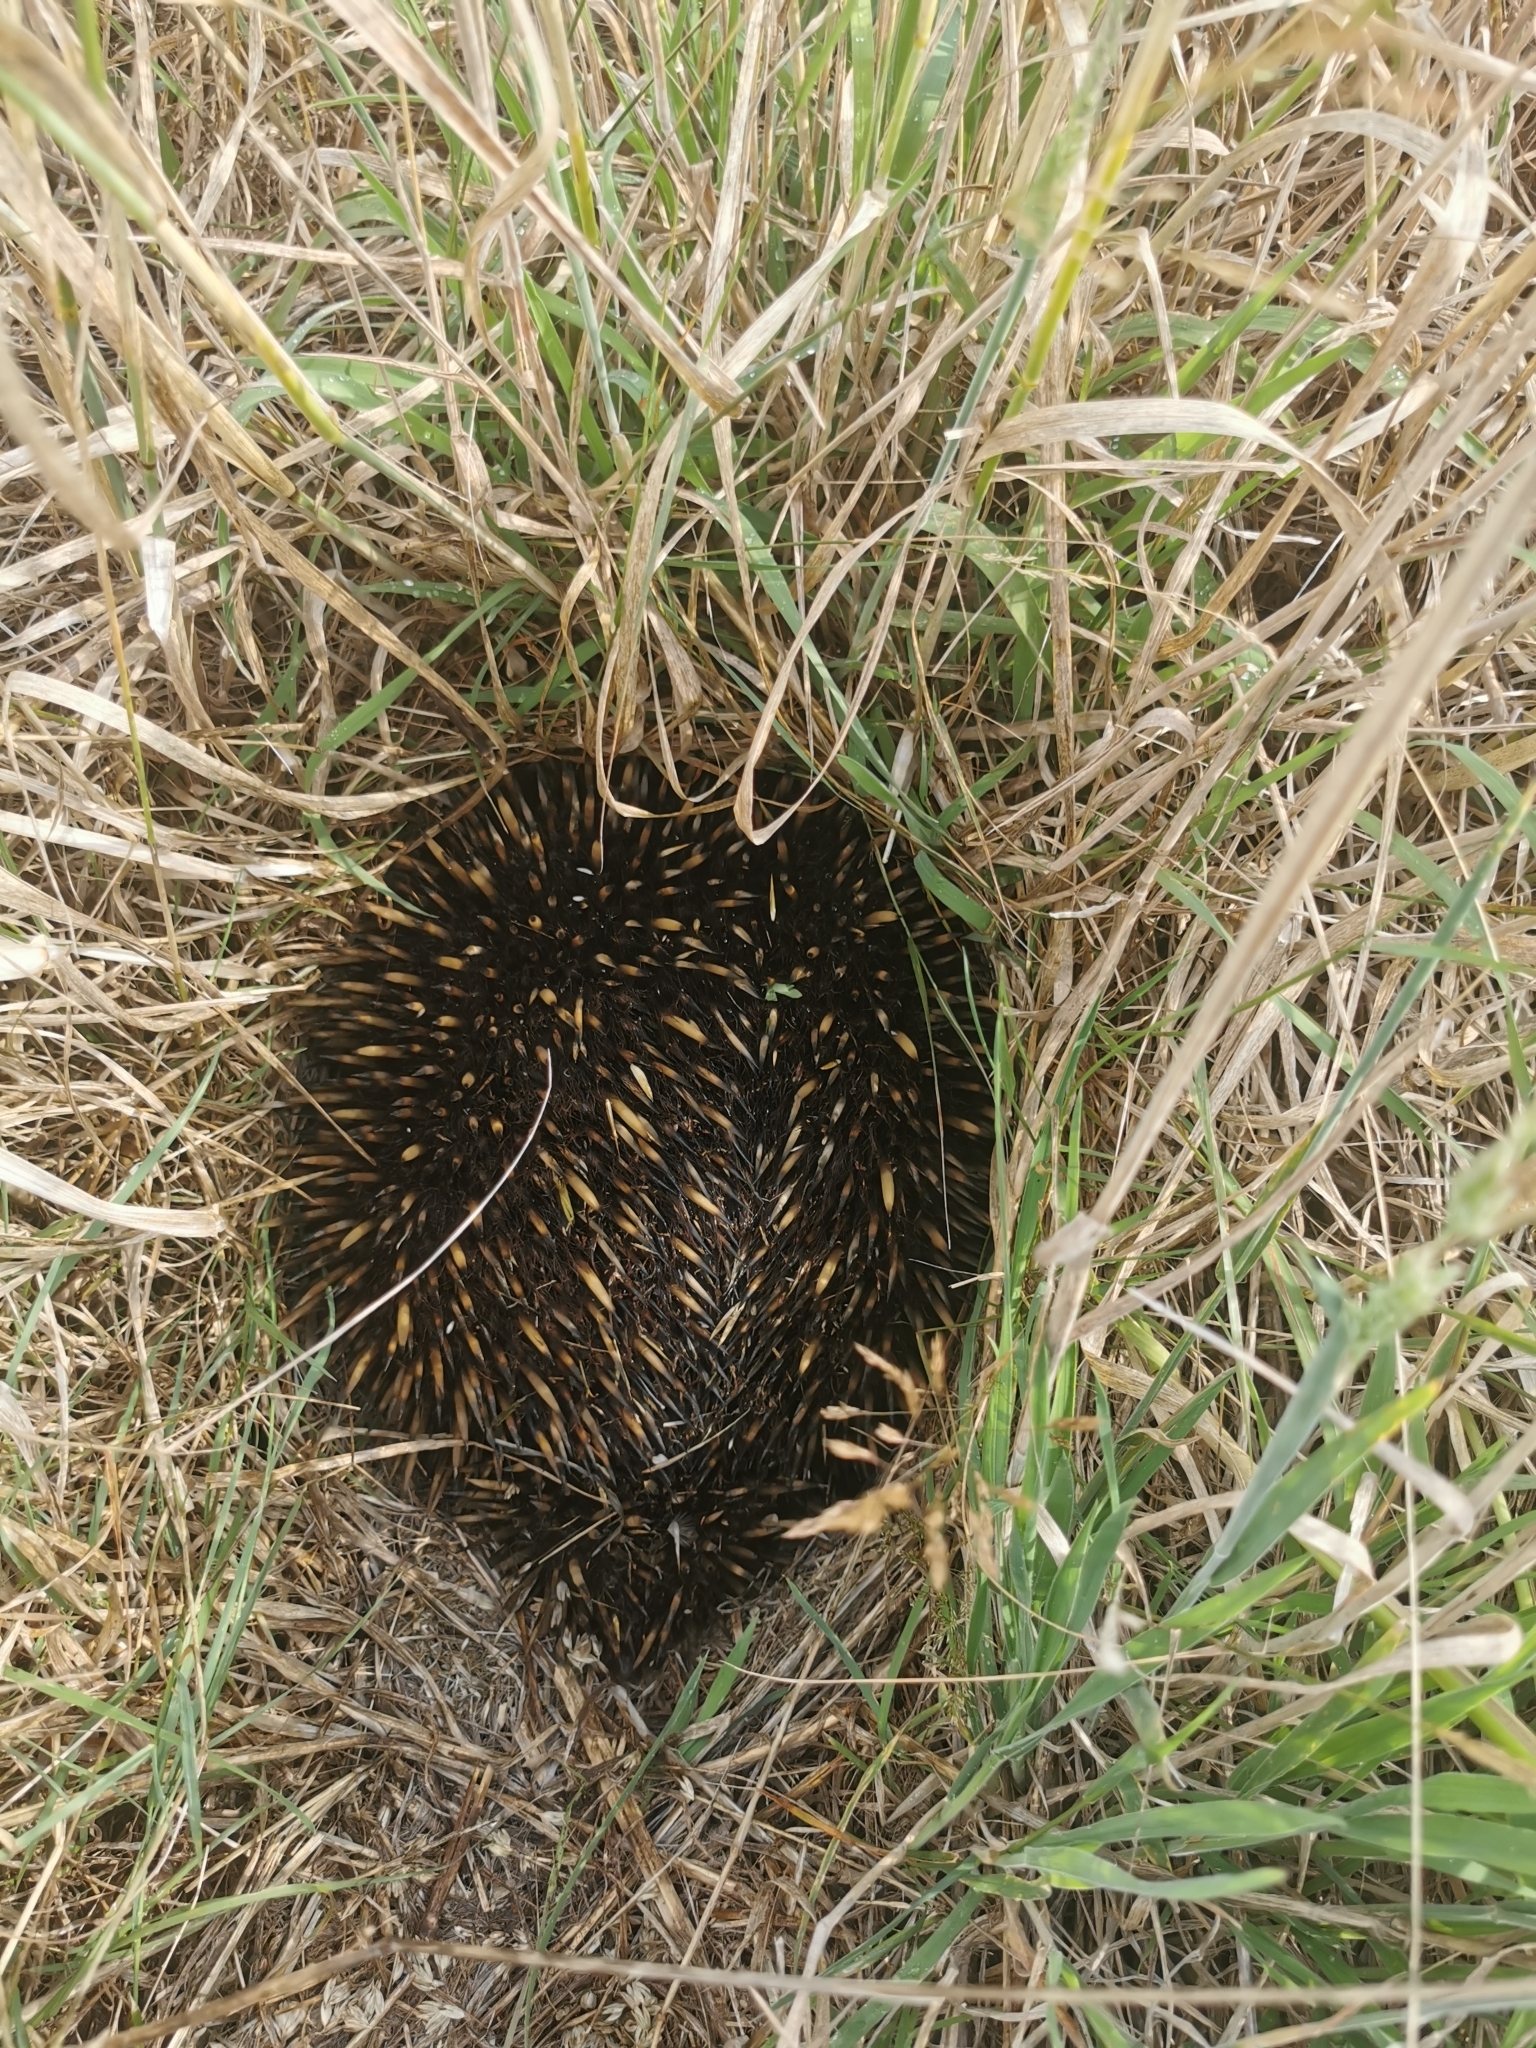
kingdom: Animalia
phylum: Chordata
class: Mammalia
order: Monotremata
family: Tachyglossidae
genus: Tachyglossus
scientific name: Tachyglossus aculeatus
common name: Short-beaked echidna
